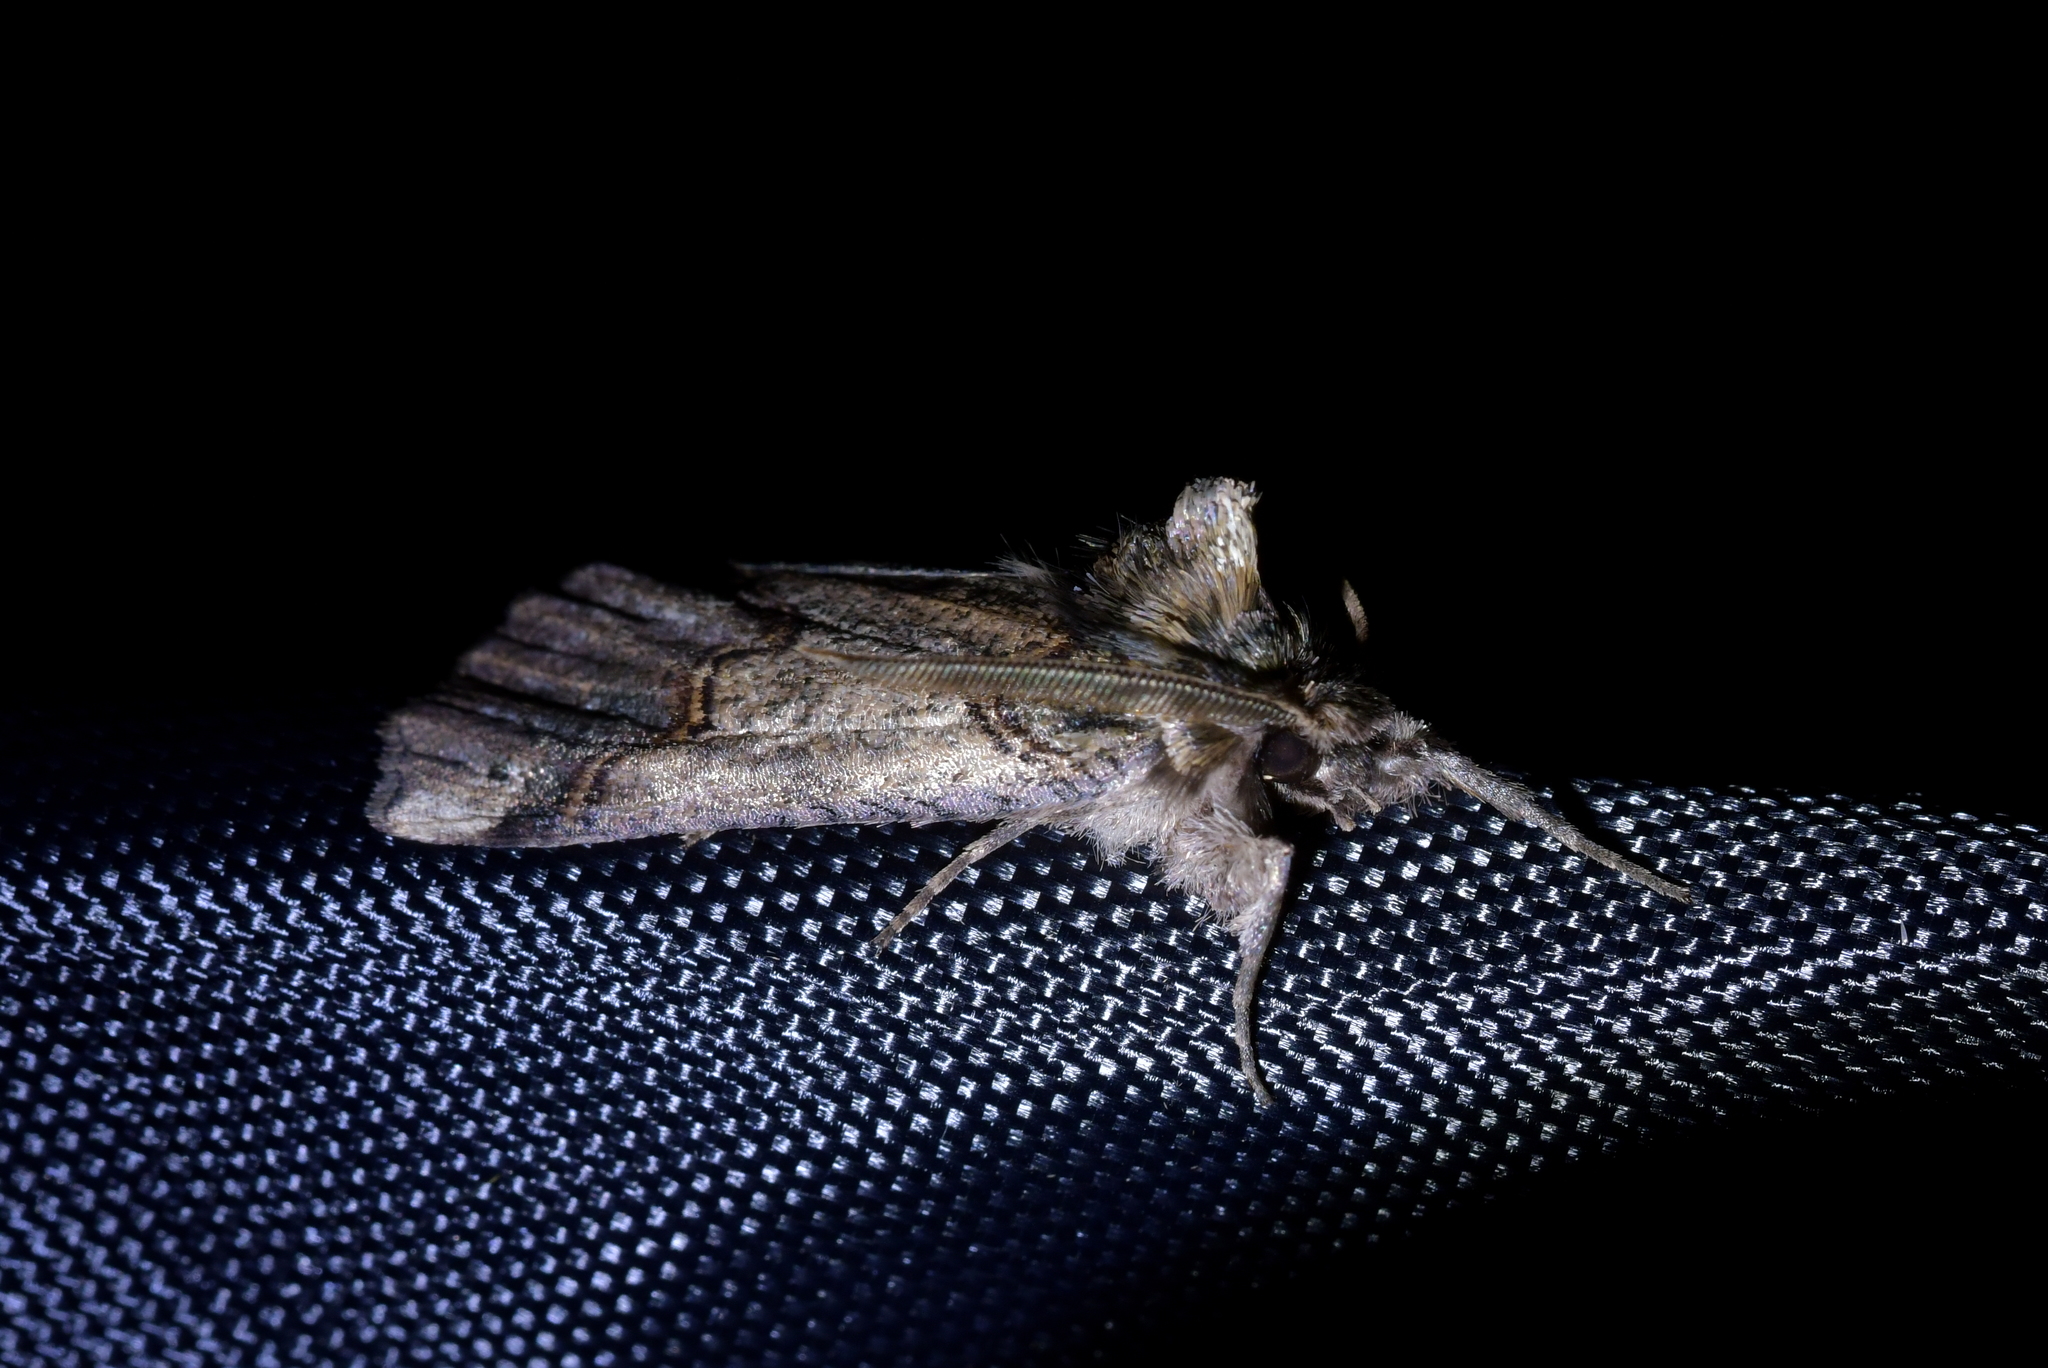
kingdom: Animalia
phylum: Arthropoda
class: Insecta
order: Lepidoptera
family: Geometridae
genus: Declana
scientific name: Declana
